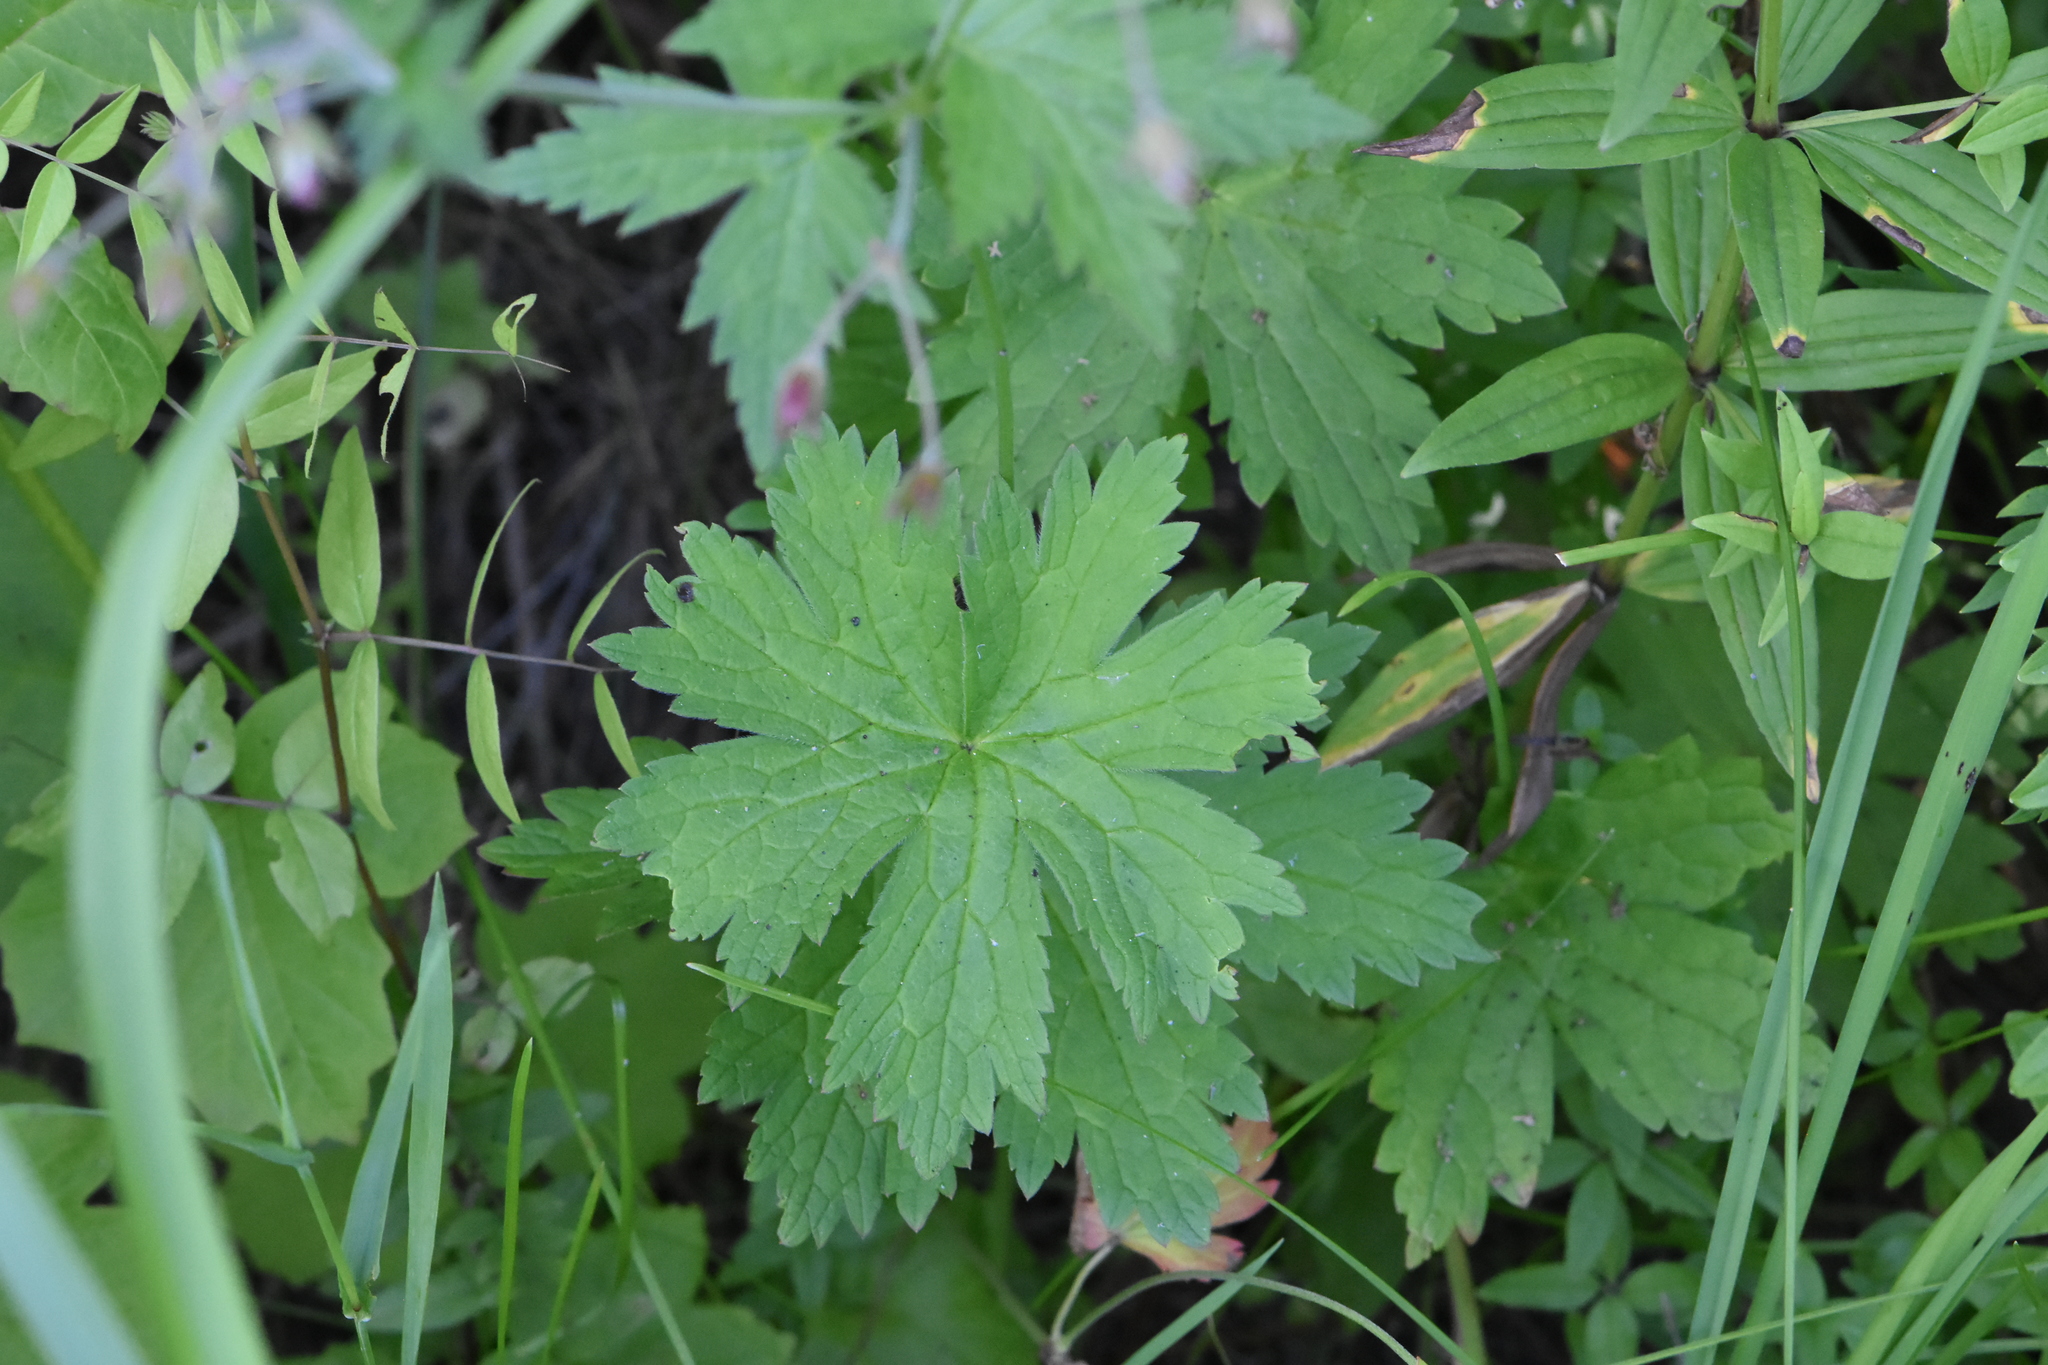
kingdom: Plantae
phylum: Tracheophyta
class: Magnoliopsida
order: Geraniales
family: Geraniaceae
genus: Geranium
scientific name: Geranium sylvaticum
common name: Wood crane's-bill
